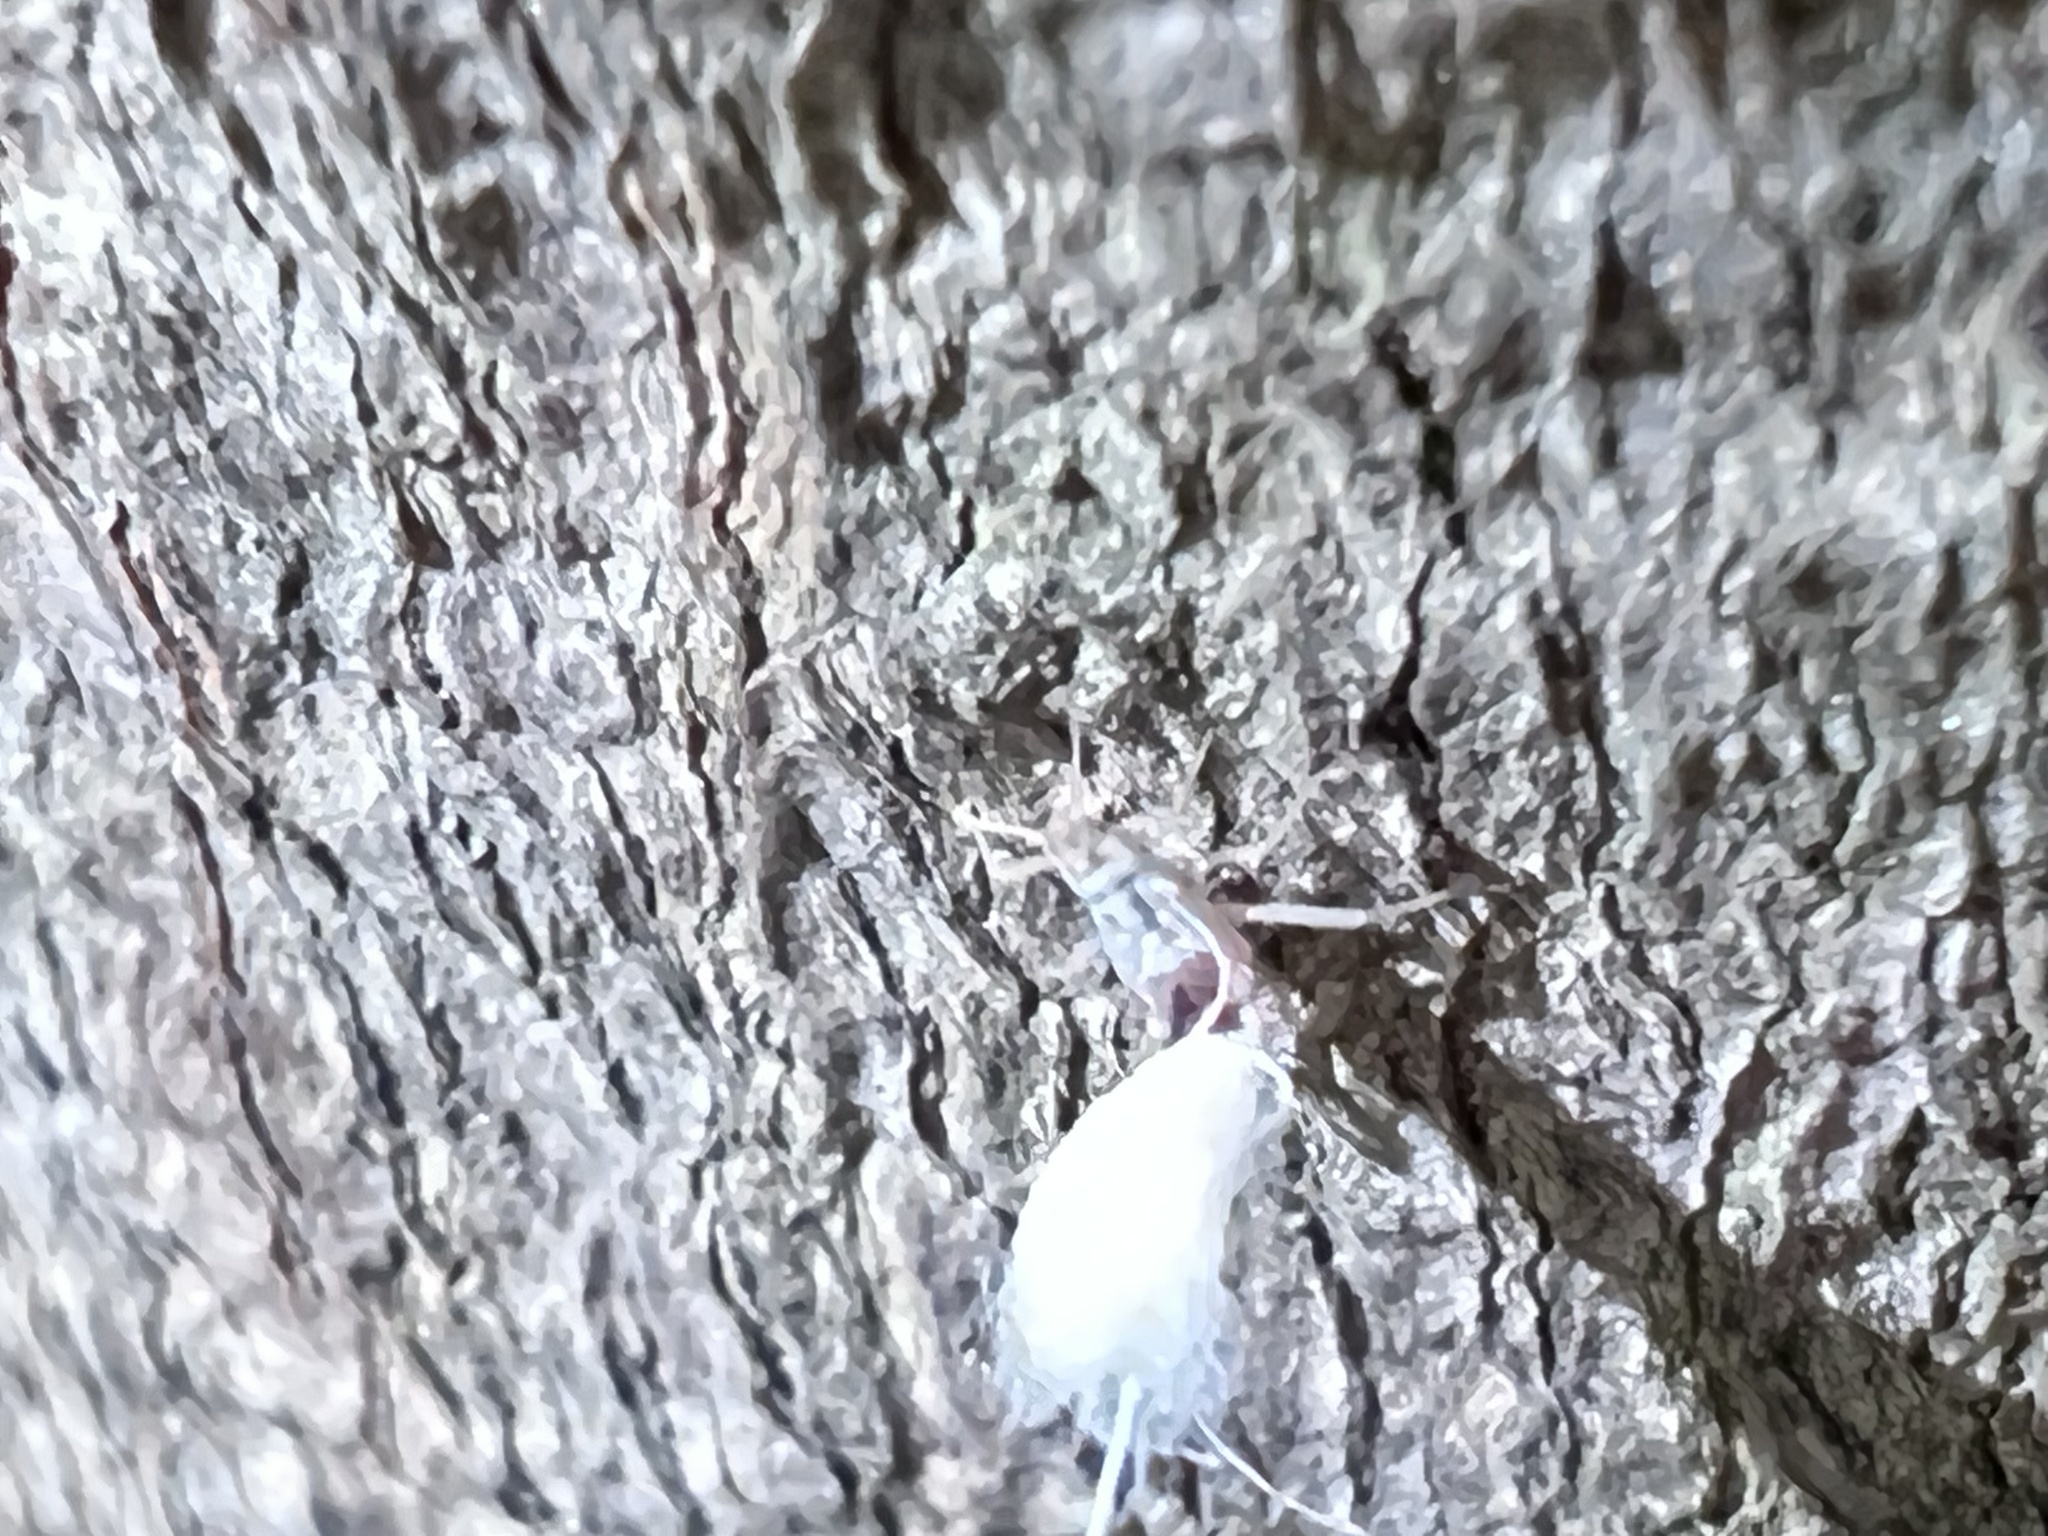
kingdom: Animalia
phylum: Arthropoda
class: Insecta
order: Hemiptera
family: Aphididae
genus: Grylloprociphilus
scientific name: Grylloprociphilus imbricator
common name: Beech blight aphid
